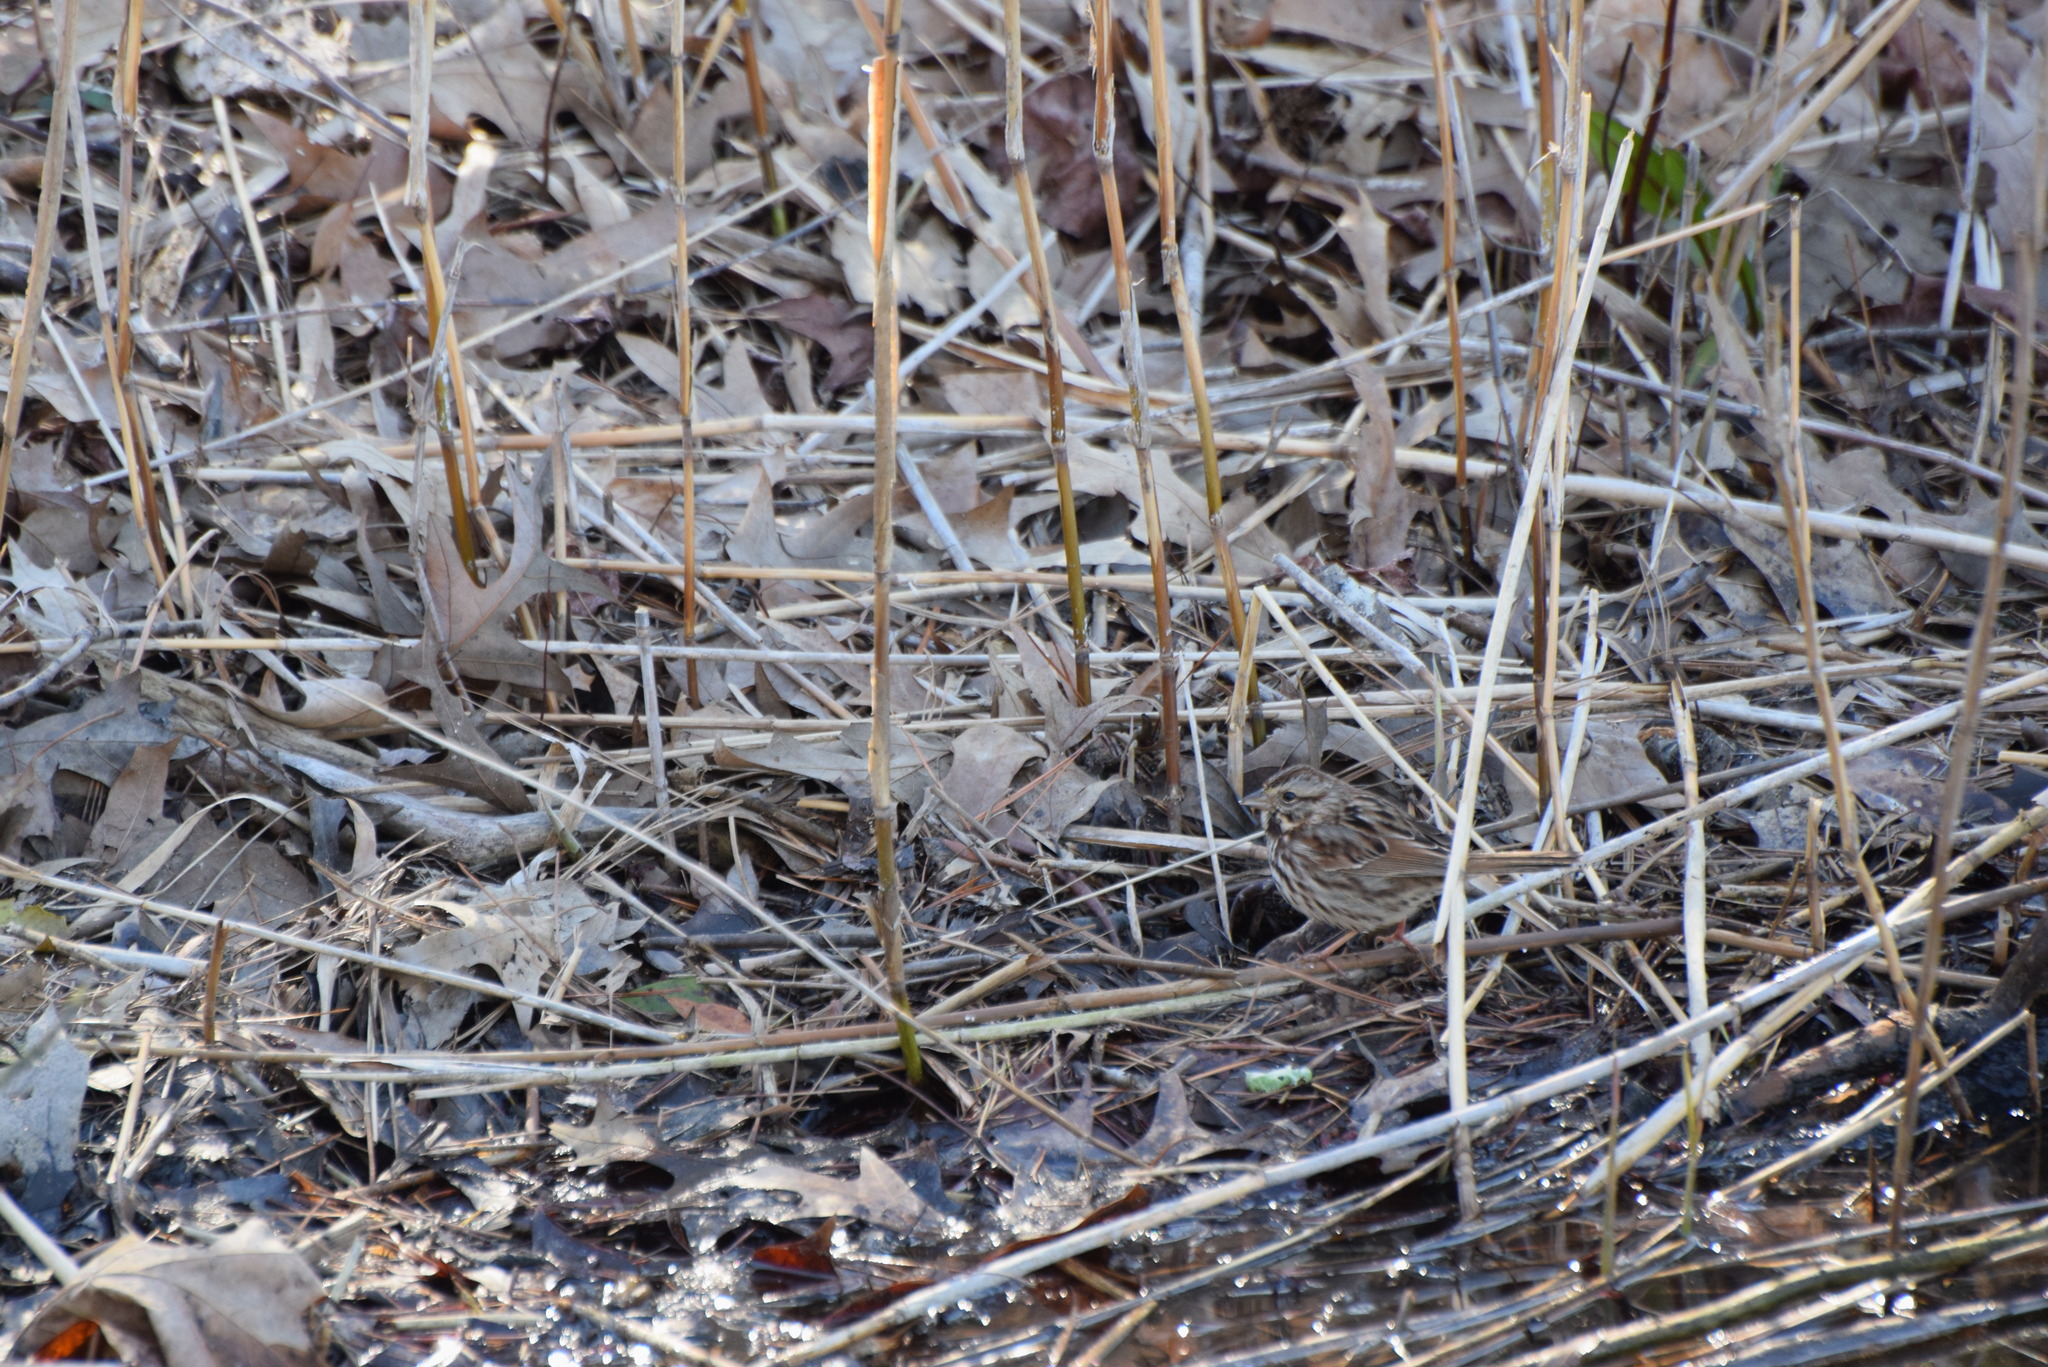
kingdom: Animalia
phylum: Chordata
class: Aves
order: Passeriformes
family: Passerellidae
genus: Melospiza
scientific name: Melospiza melodia
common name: Song sparrow
